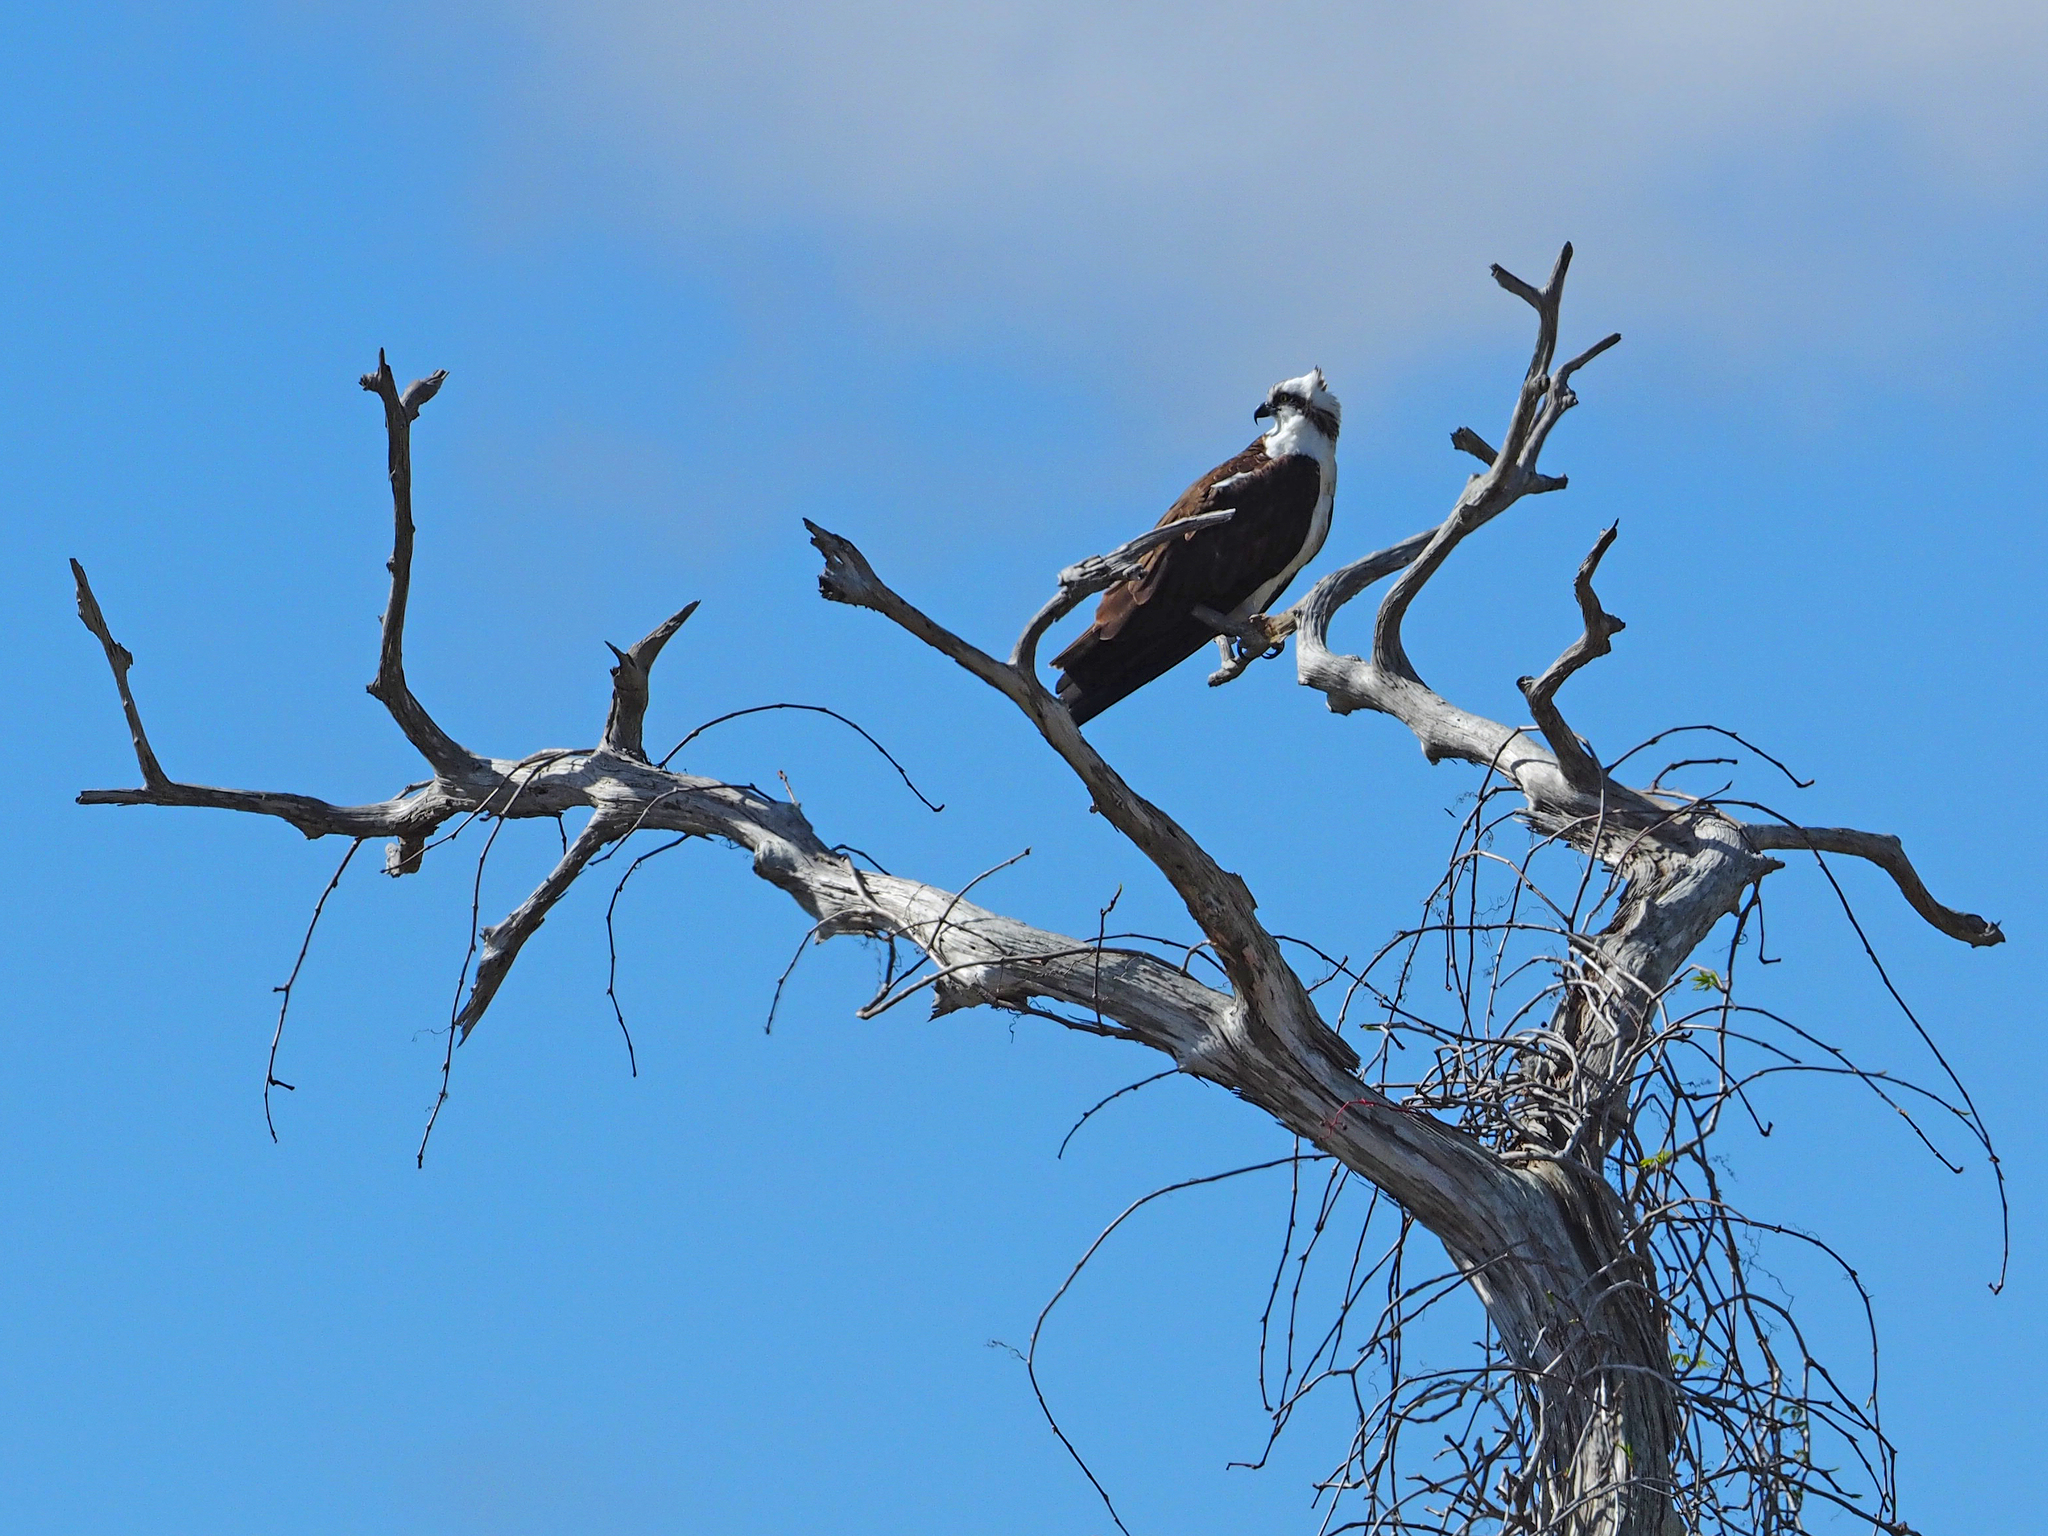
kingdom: Animalia
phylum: Chordata
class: Aves
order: Accipitriformes
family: Pandionidae
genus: Pandion
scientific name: Pandion haliaetus
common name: Osprey
